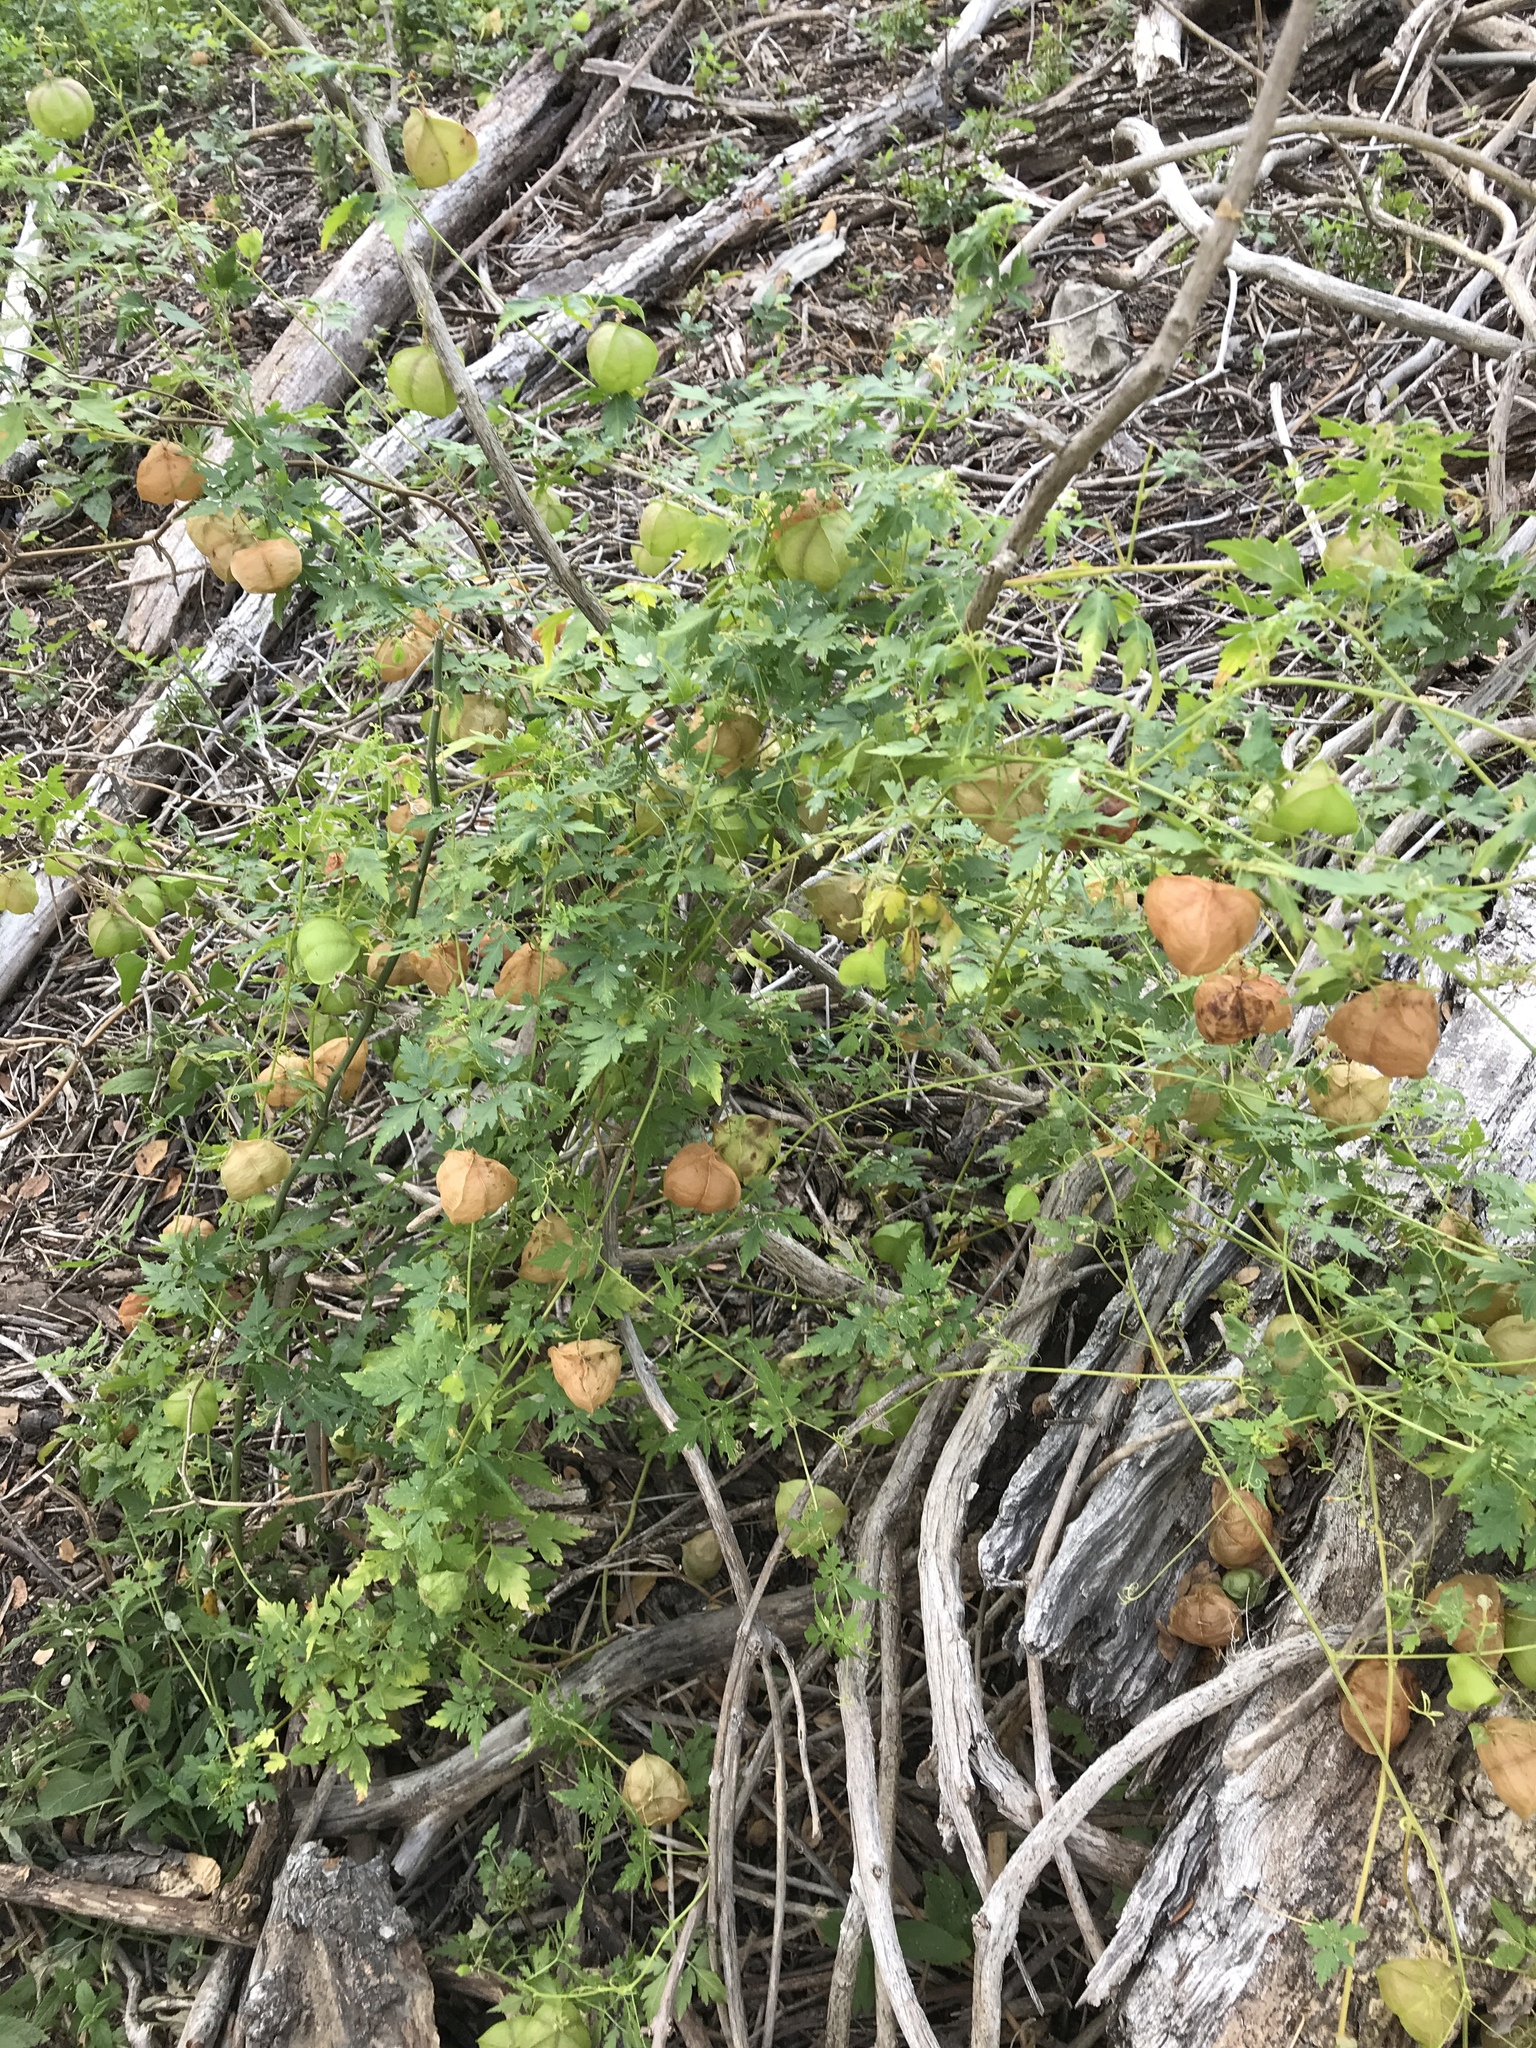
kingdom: Plantae
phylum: Tracheophyta
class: Magnoliopsida
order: Sapindales
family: Sapindaceae
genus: Cardiospermum
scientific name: Cardiospermum halicacabum
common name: Balloon vine
